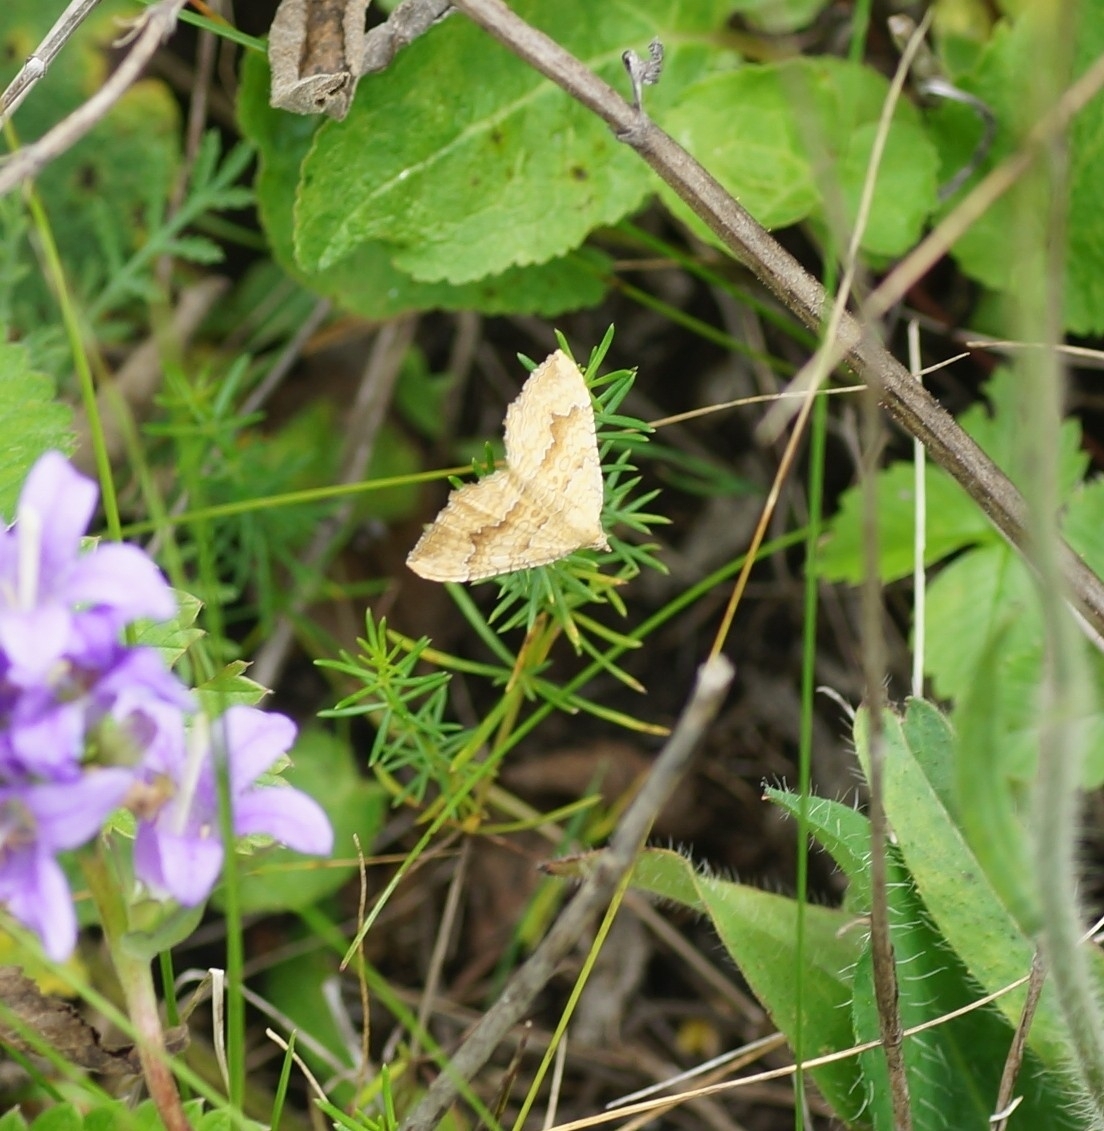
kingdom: Animalia
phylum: Arthropoda
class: Insecta
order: Lepidoptera
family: Geometridae
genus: Camptogramma
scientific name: Camptogramma bilineata
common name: Yellow shell
